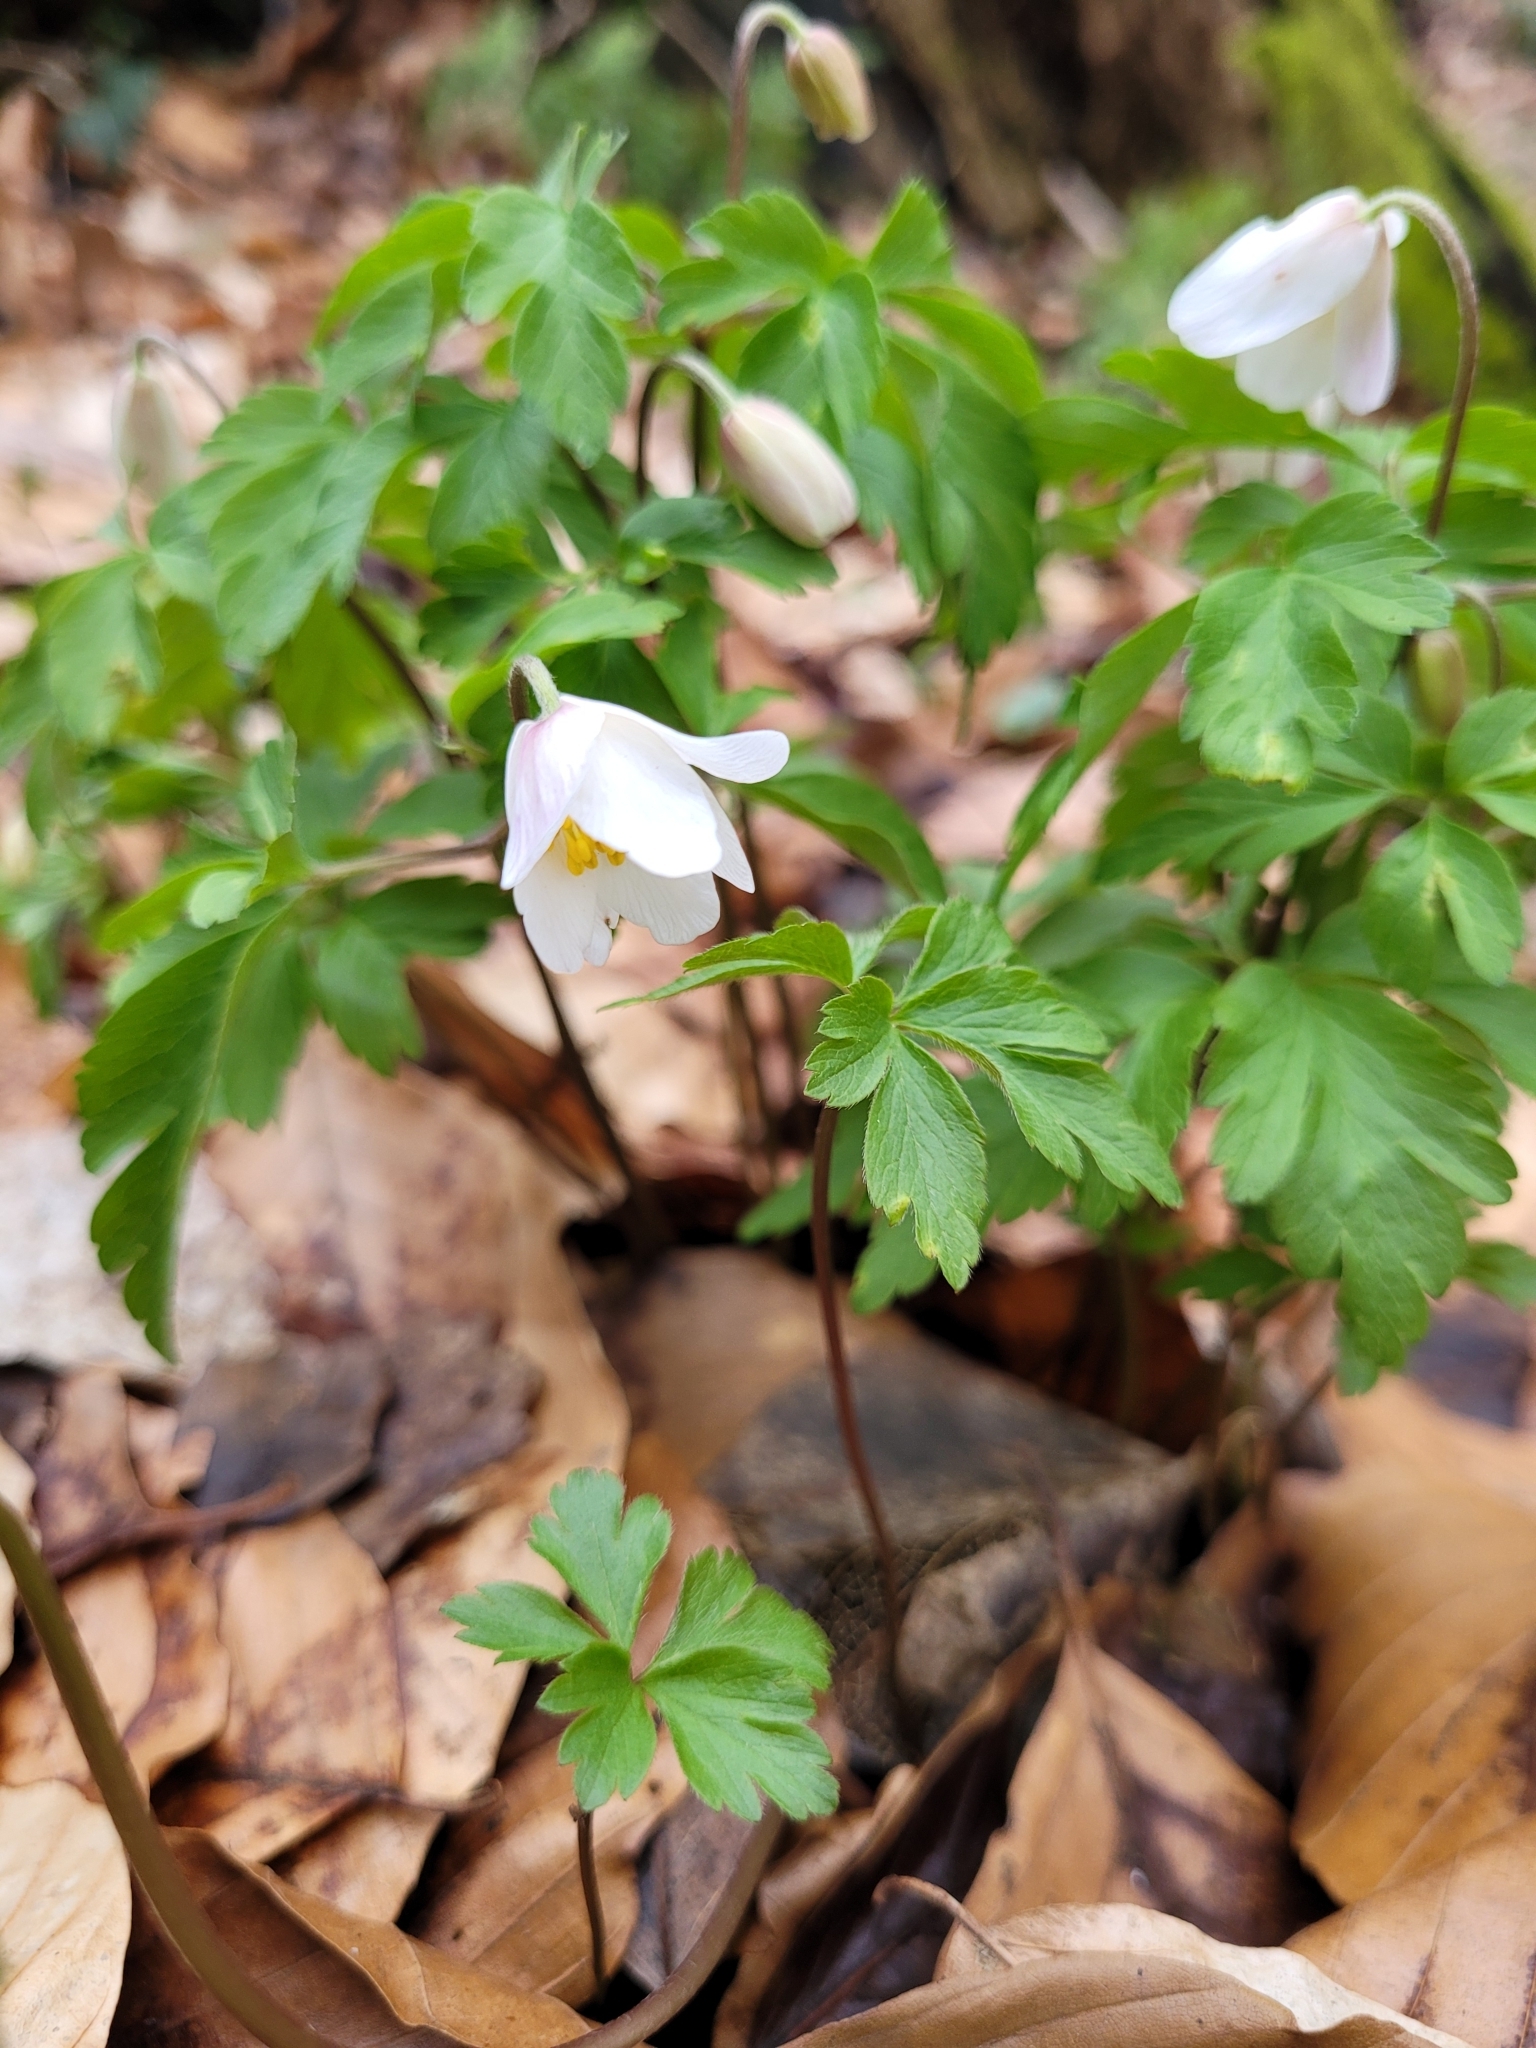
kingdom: Plantae
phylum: Tracheophyta
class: Magnoliopsida
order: Ranunculales
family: Ranunculaceae
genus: Anemone
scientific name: Anemone nemorosa
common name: Wood anemone
